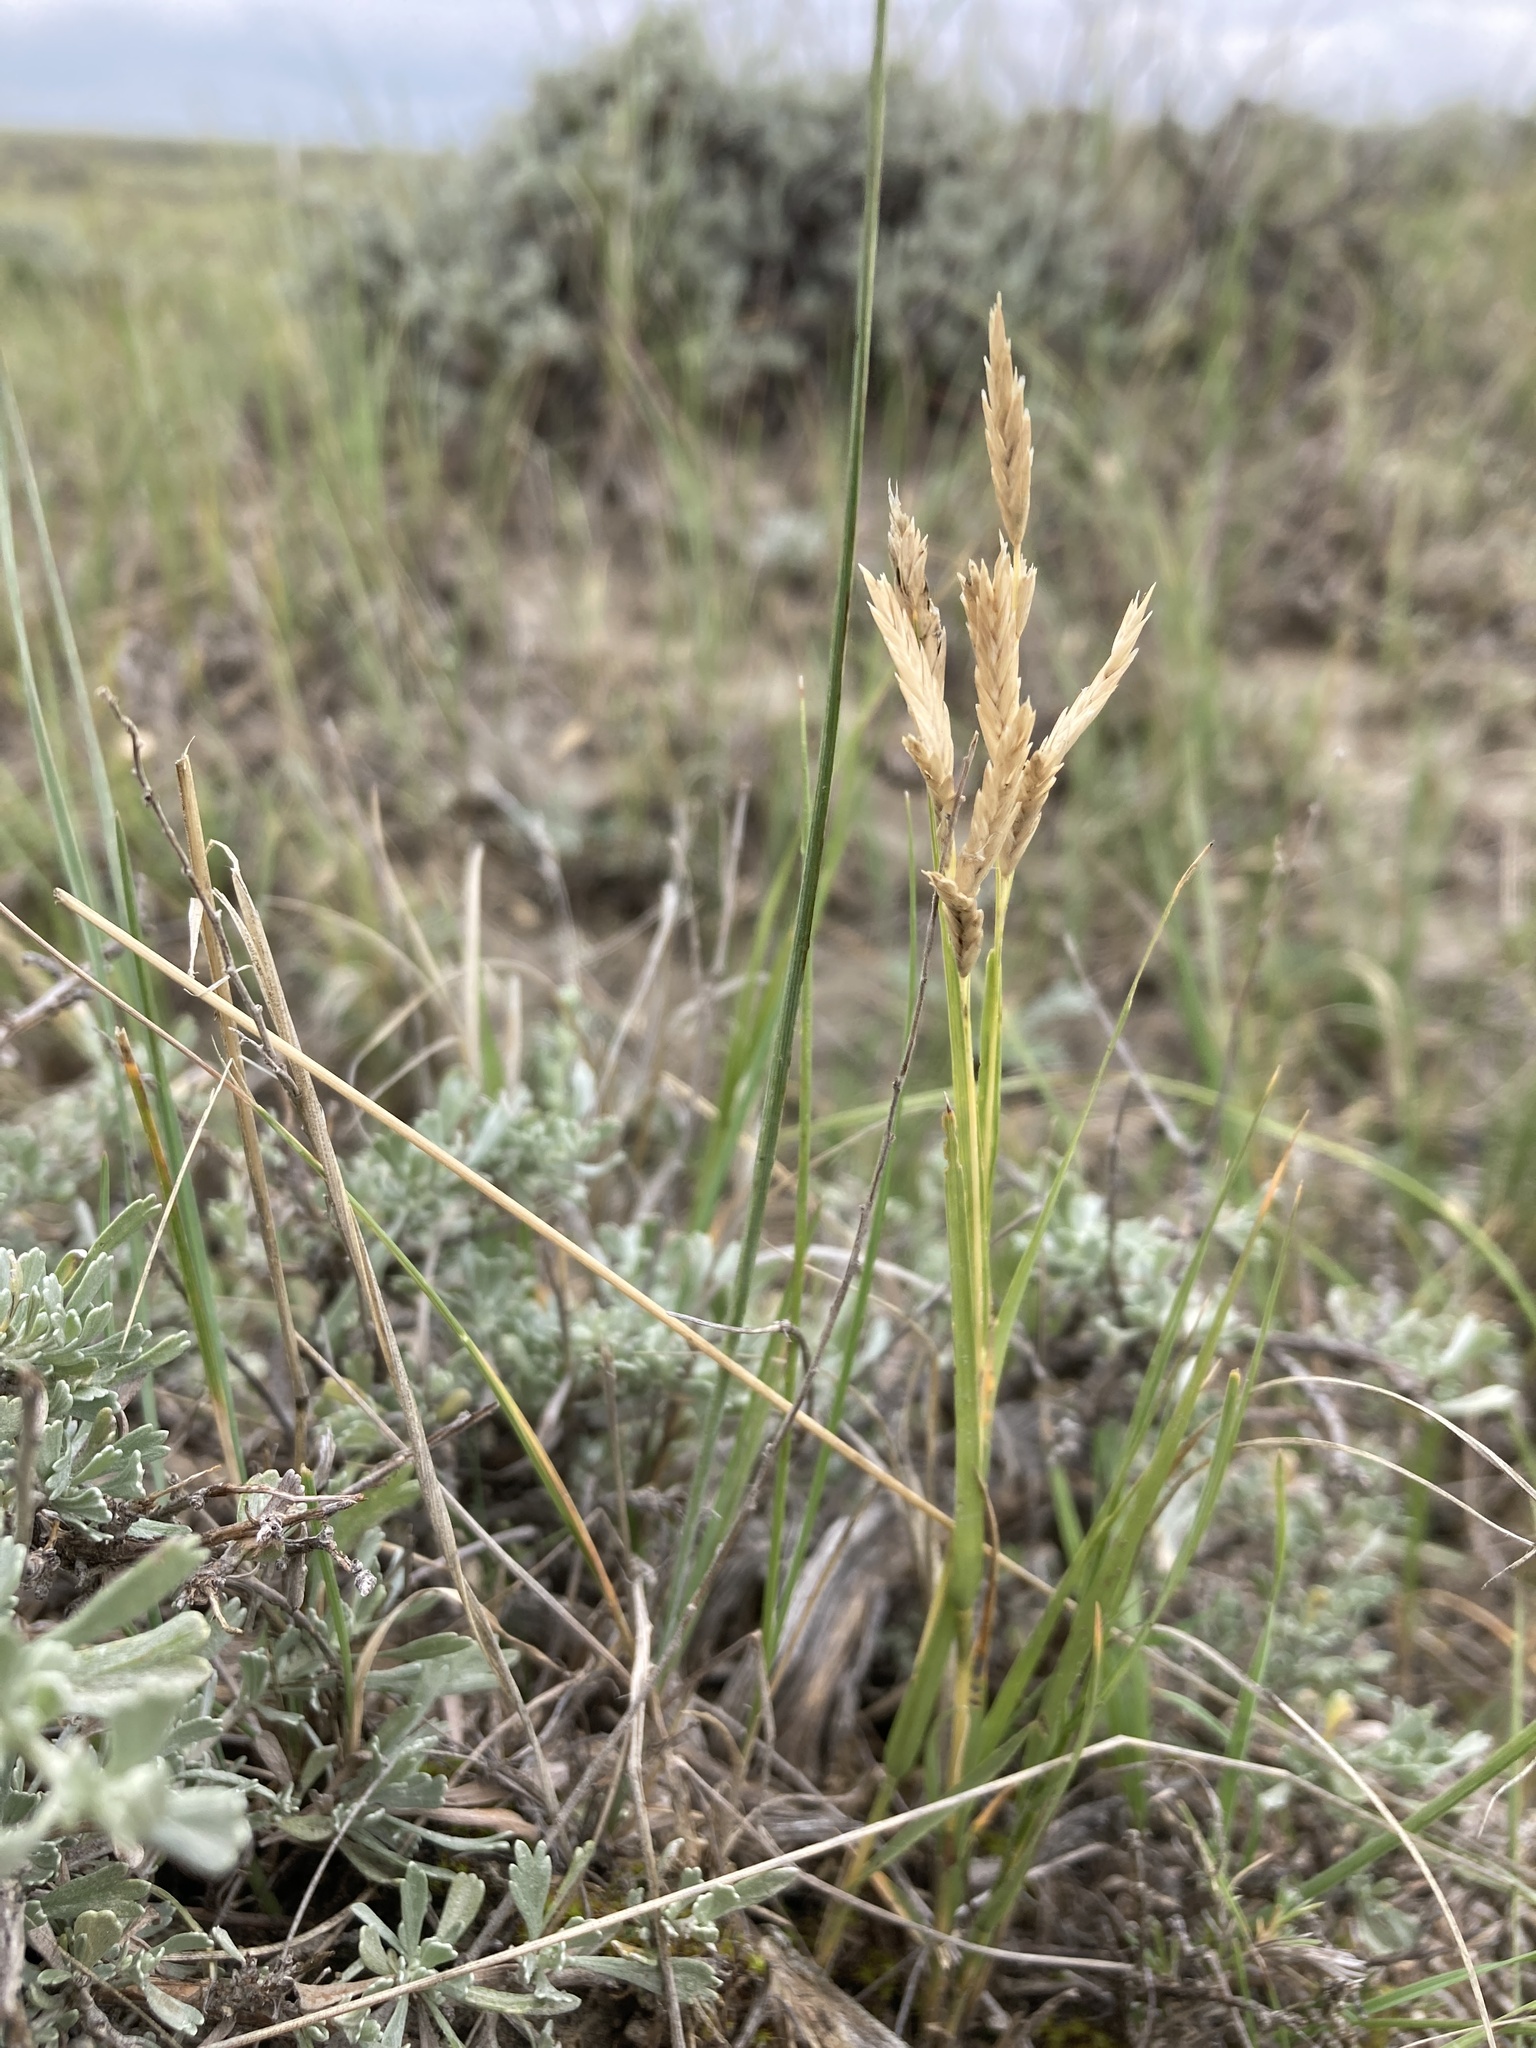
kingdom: Plantae
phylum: Tracheophyta
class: Liliopsida
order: Poales
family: Poaceae
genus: Distichlis
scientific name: Distichlis spicata
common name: Saltgrass
